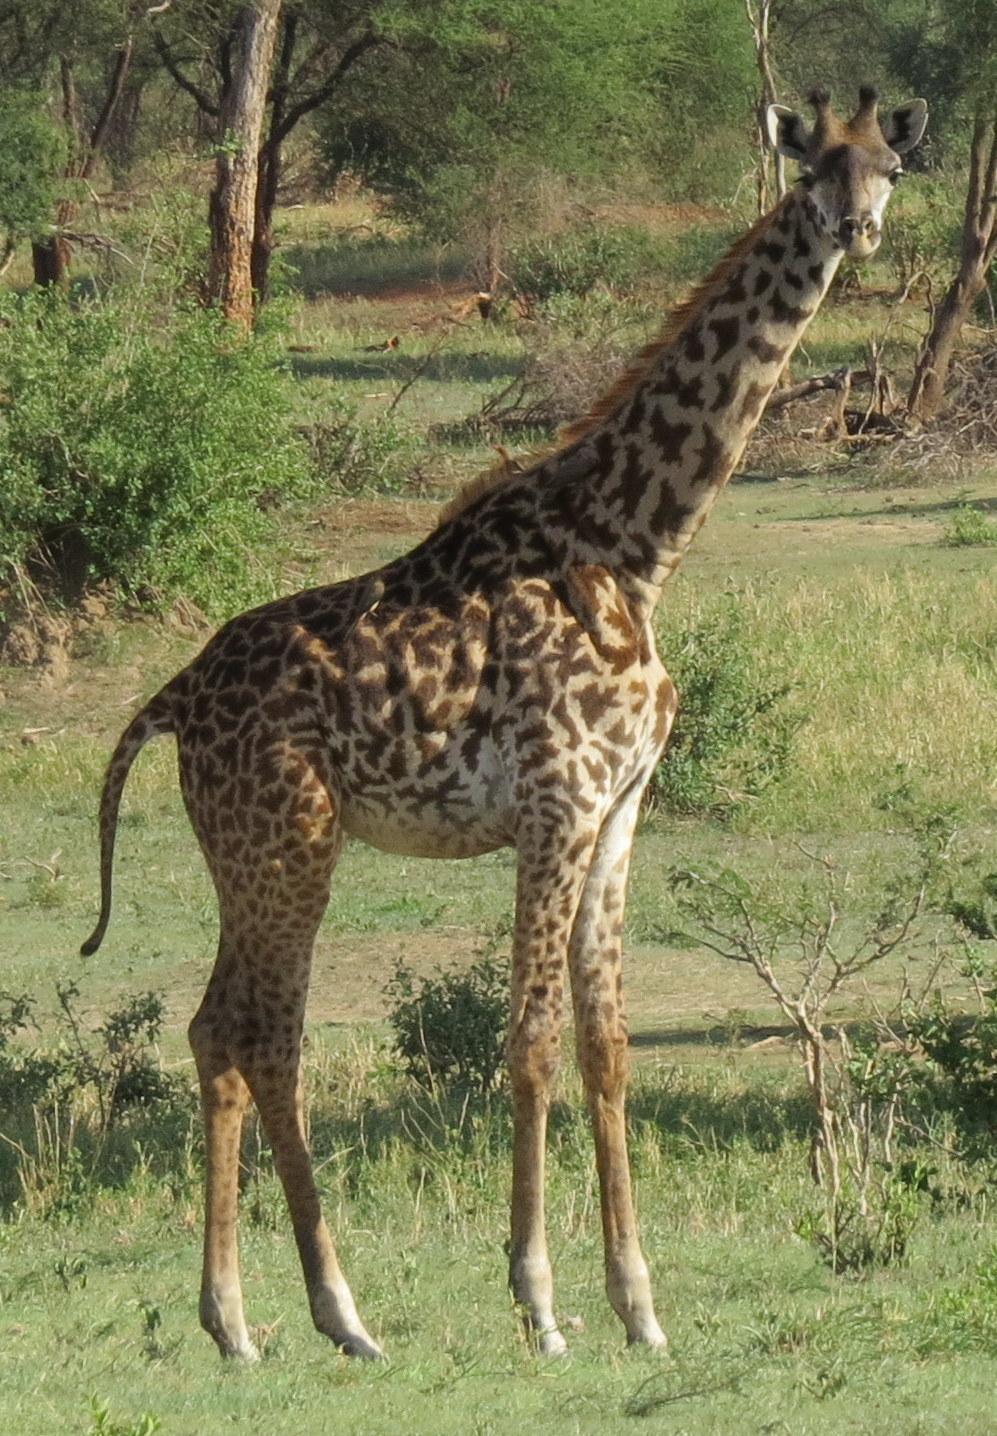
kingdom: Animalia
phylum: Chordata
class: Mammalia
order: Artiodactyla
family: Giraffidae
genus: Giraffa
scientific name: Giraffa tippelskirchi
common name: Masai giraffe
